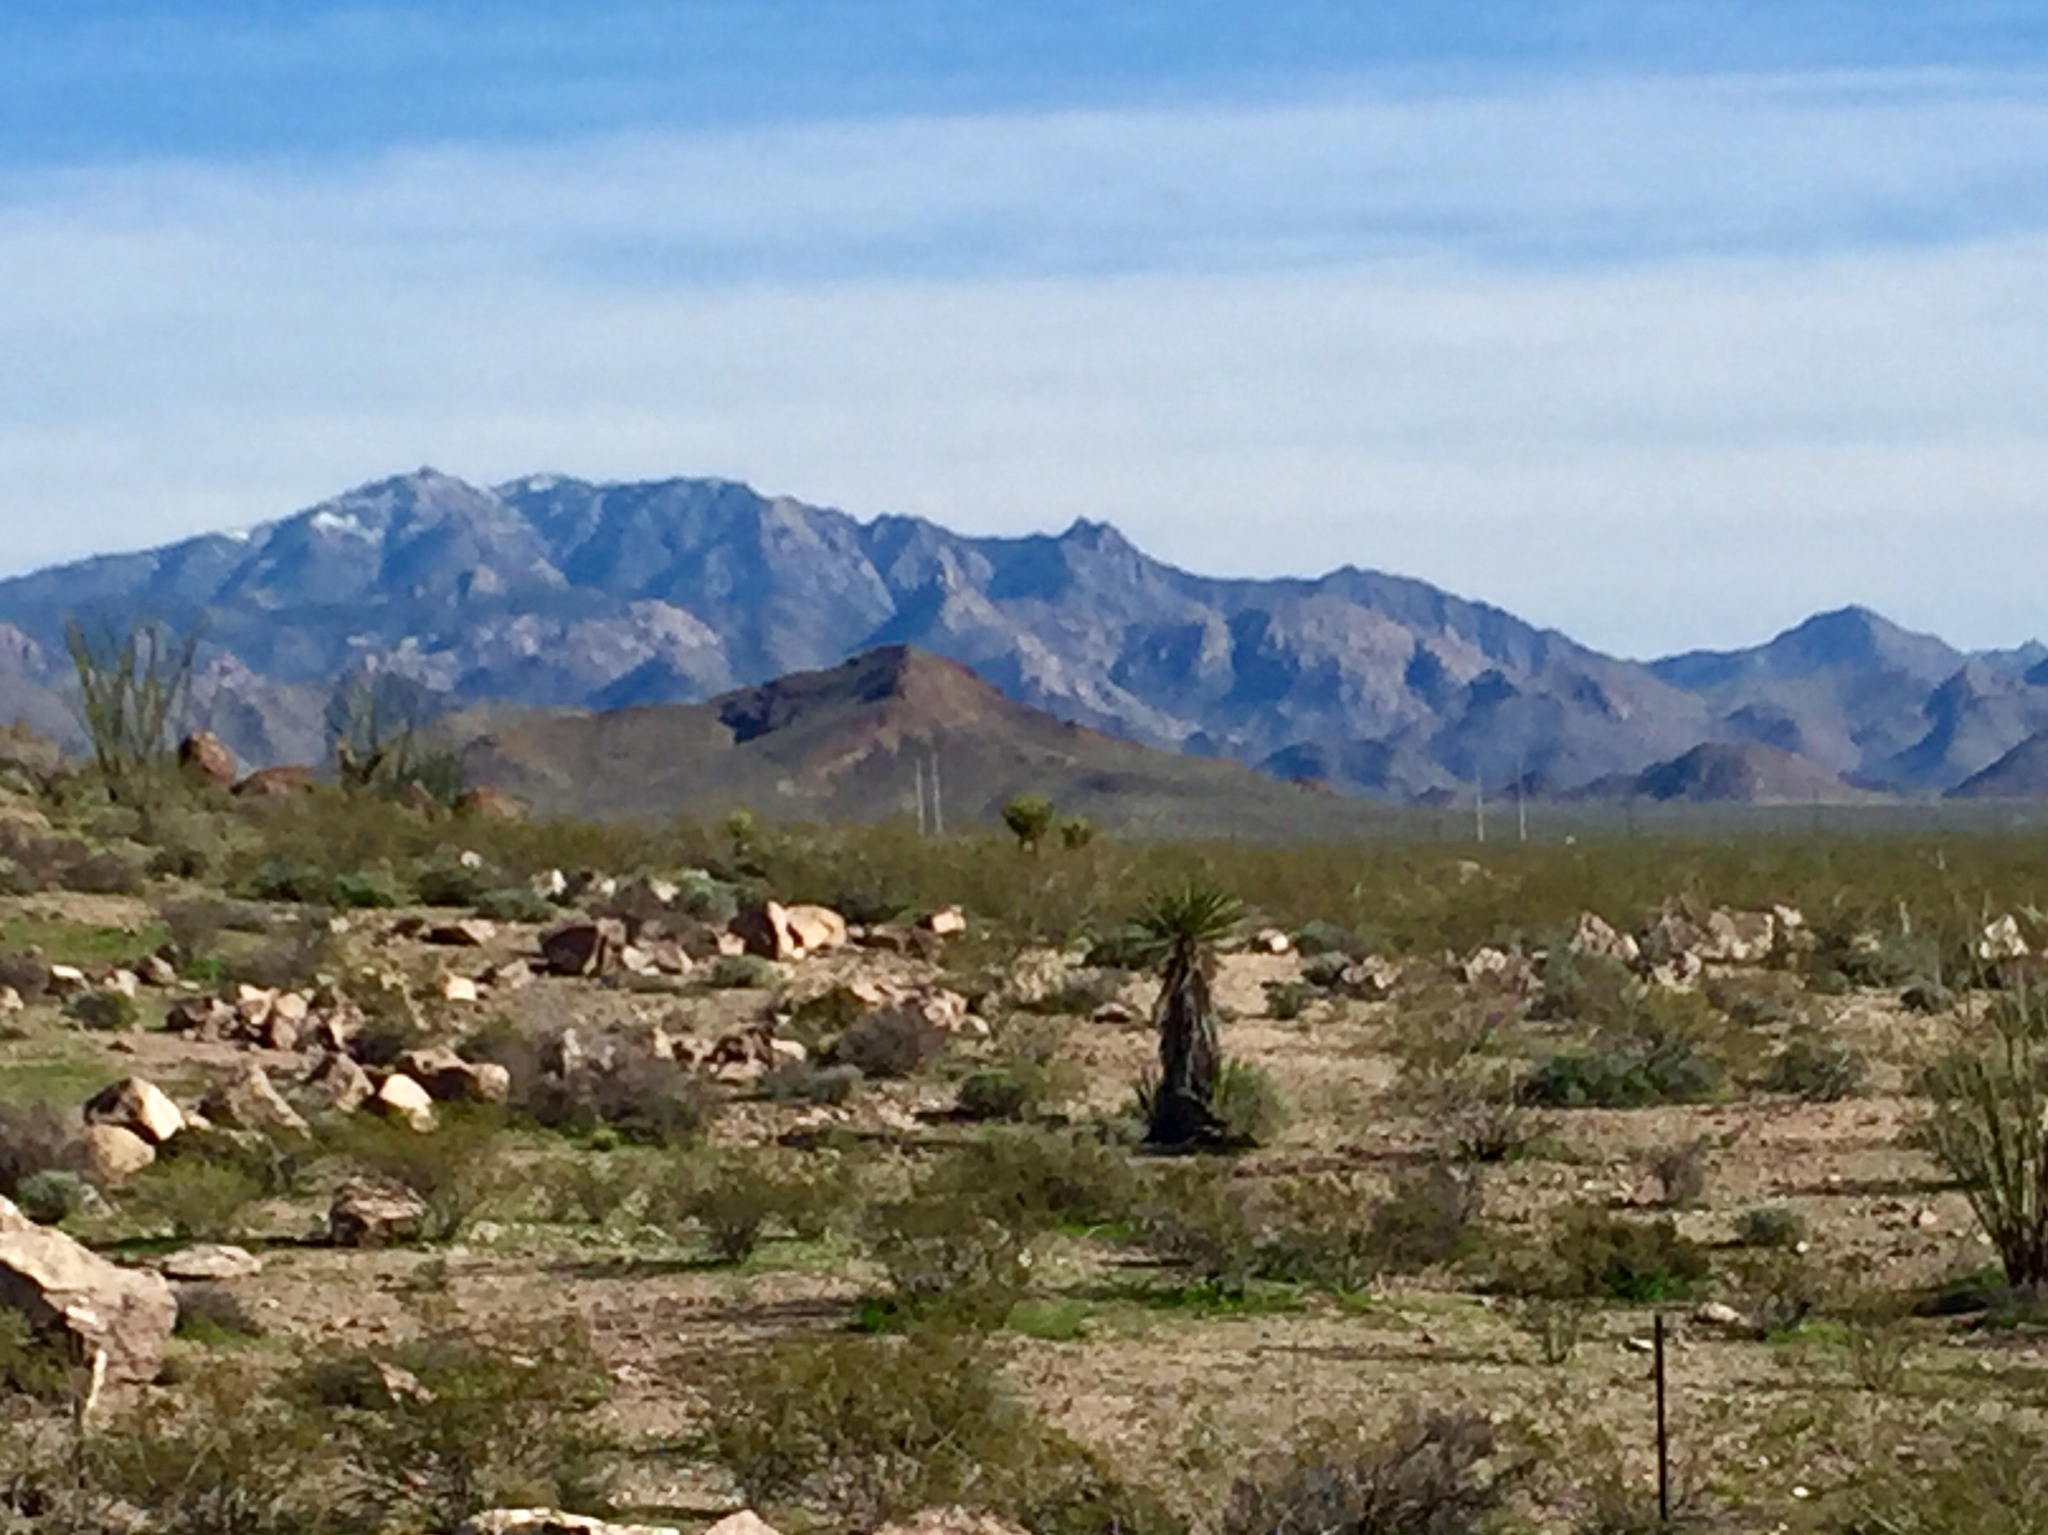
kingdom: Plantae
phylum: Tracheophyta
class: Liliopsida
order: Asparagales
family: Asparagaceae
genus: Yucca
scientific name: Yucca schidigera
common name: Mojave yucca
